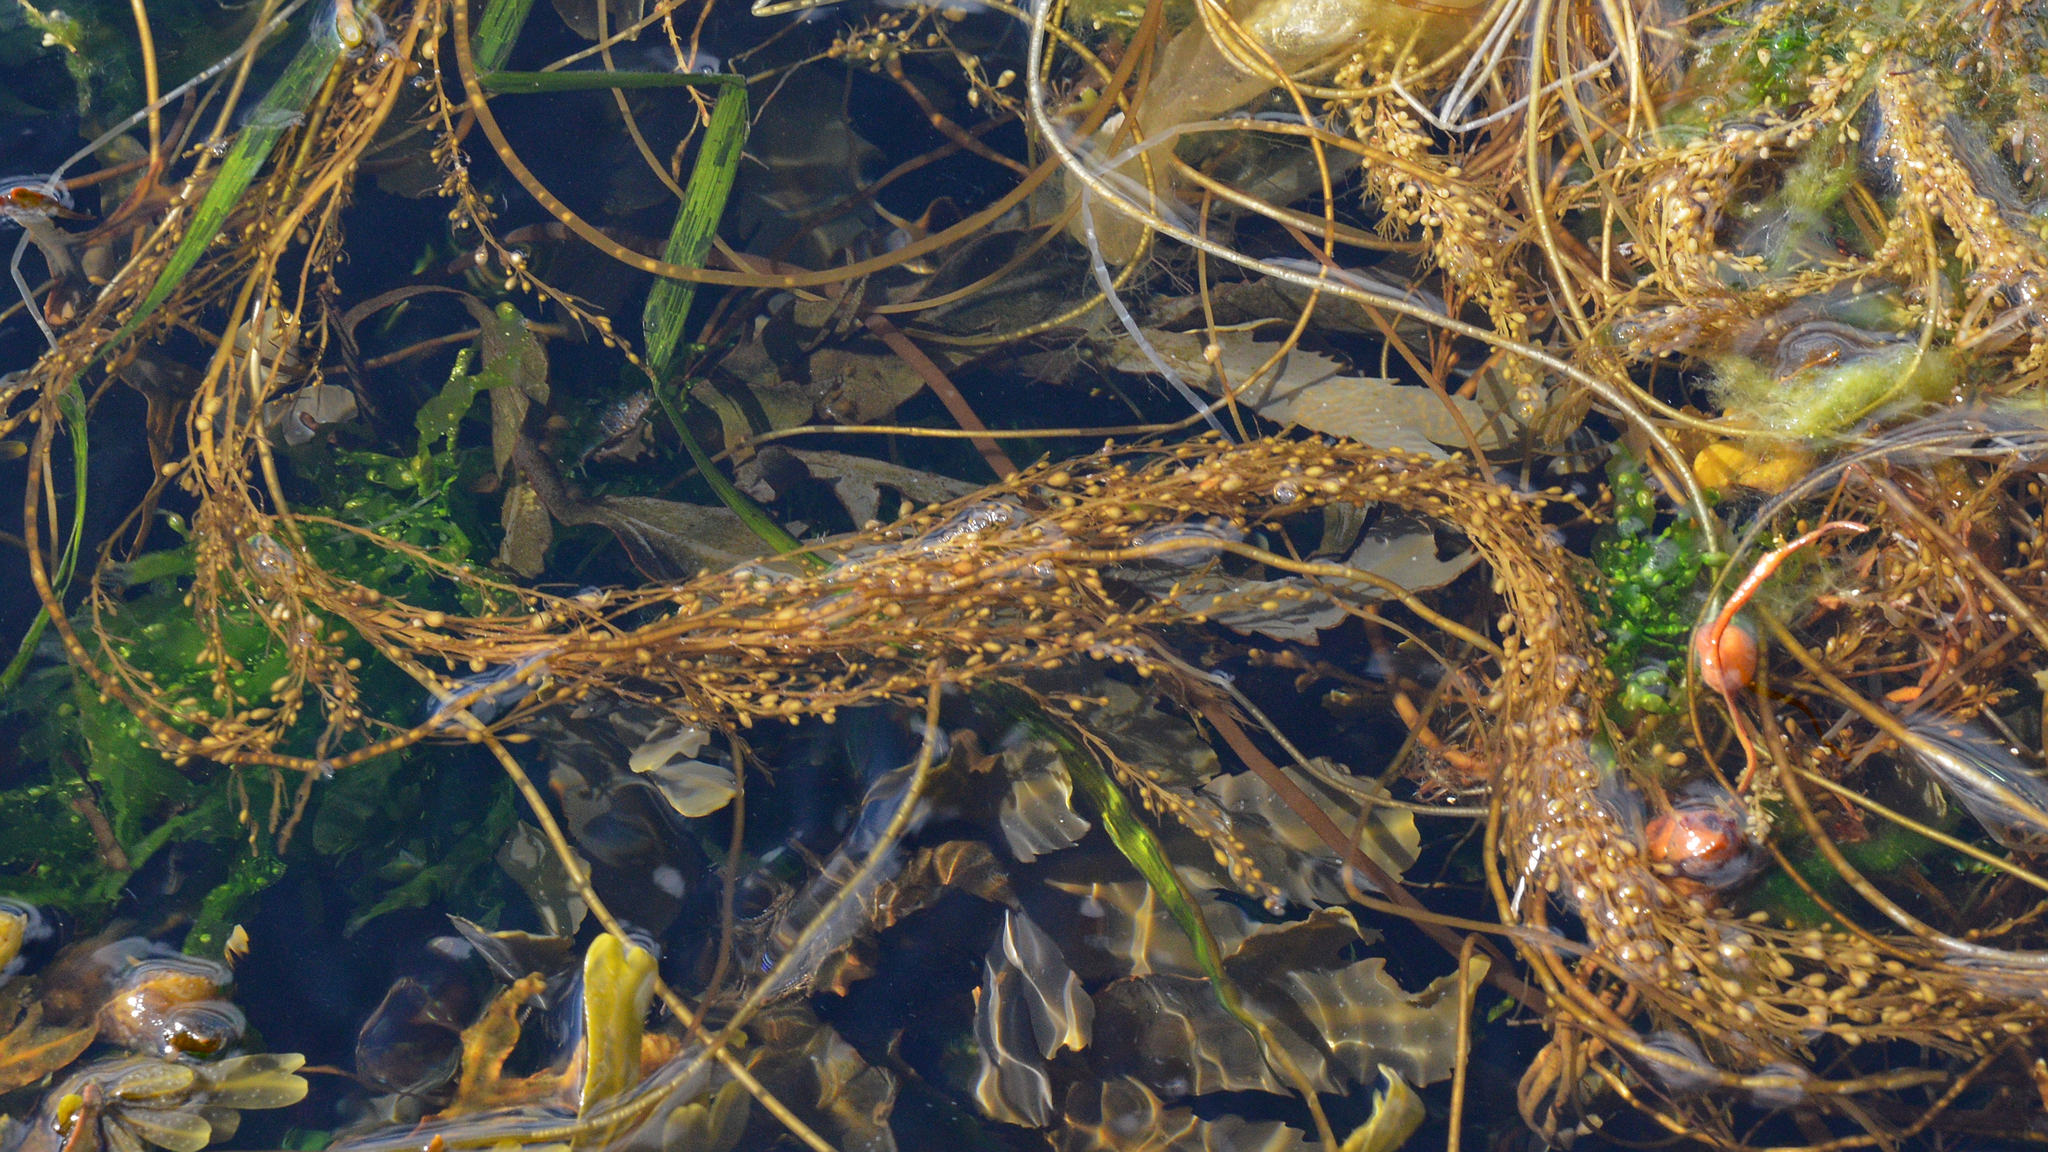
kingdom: Chromista
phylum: Ochrophyta
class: Phaeophyceae
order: Fucales
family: Sargassaceae
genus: Sargassum
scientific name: Sargassum muticum
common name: Japweed
